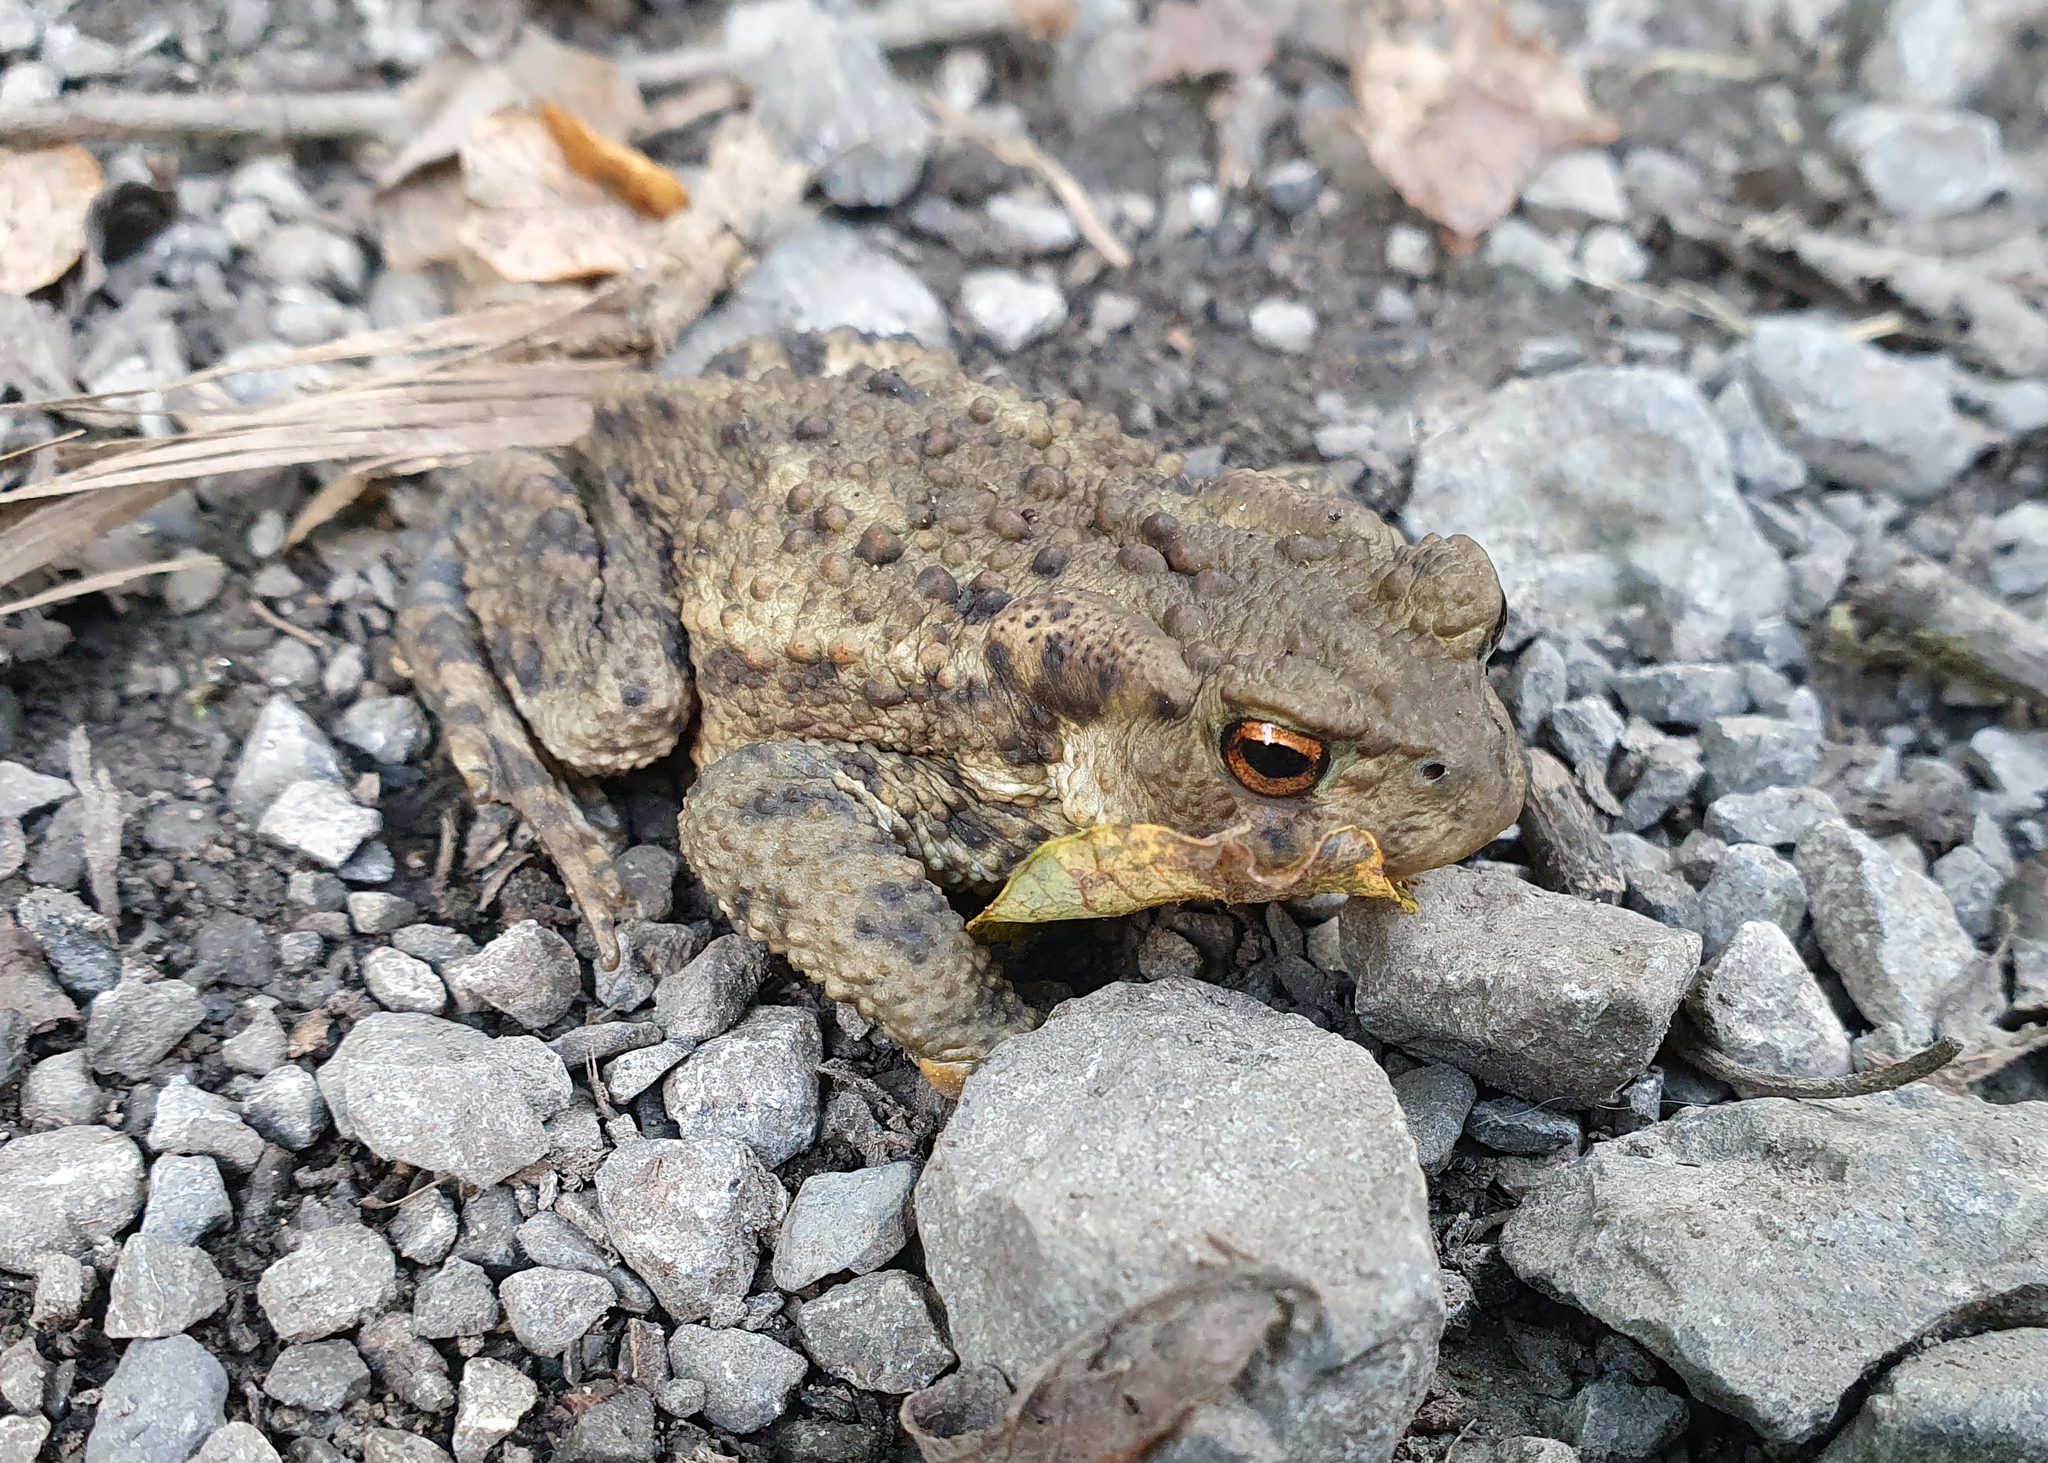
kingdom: Animalia
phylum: Chordata
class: Amphibia
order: Anura
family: Bufonidae
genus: Bufo
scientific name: Bufo bufo
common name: Common toad
